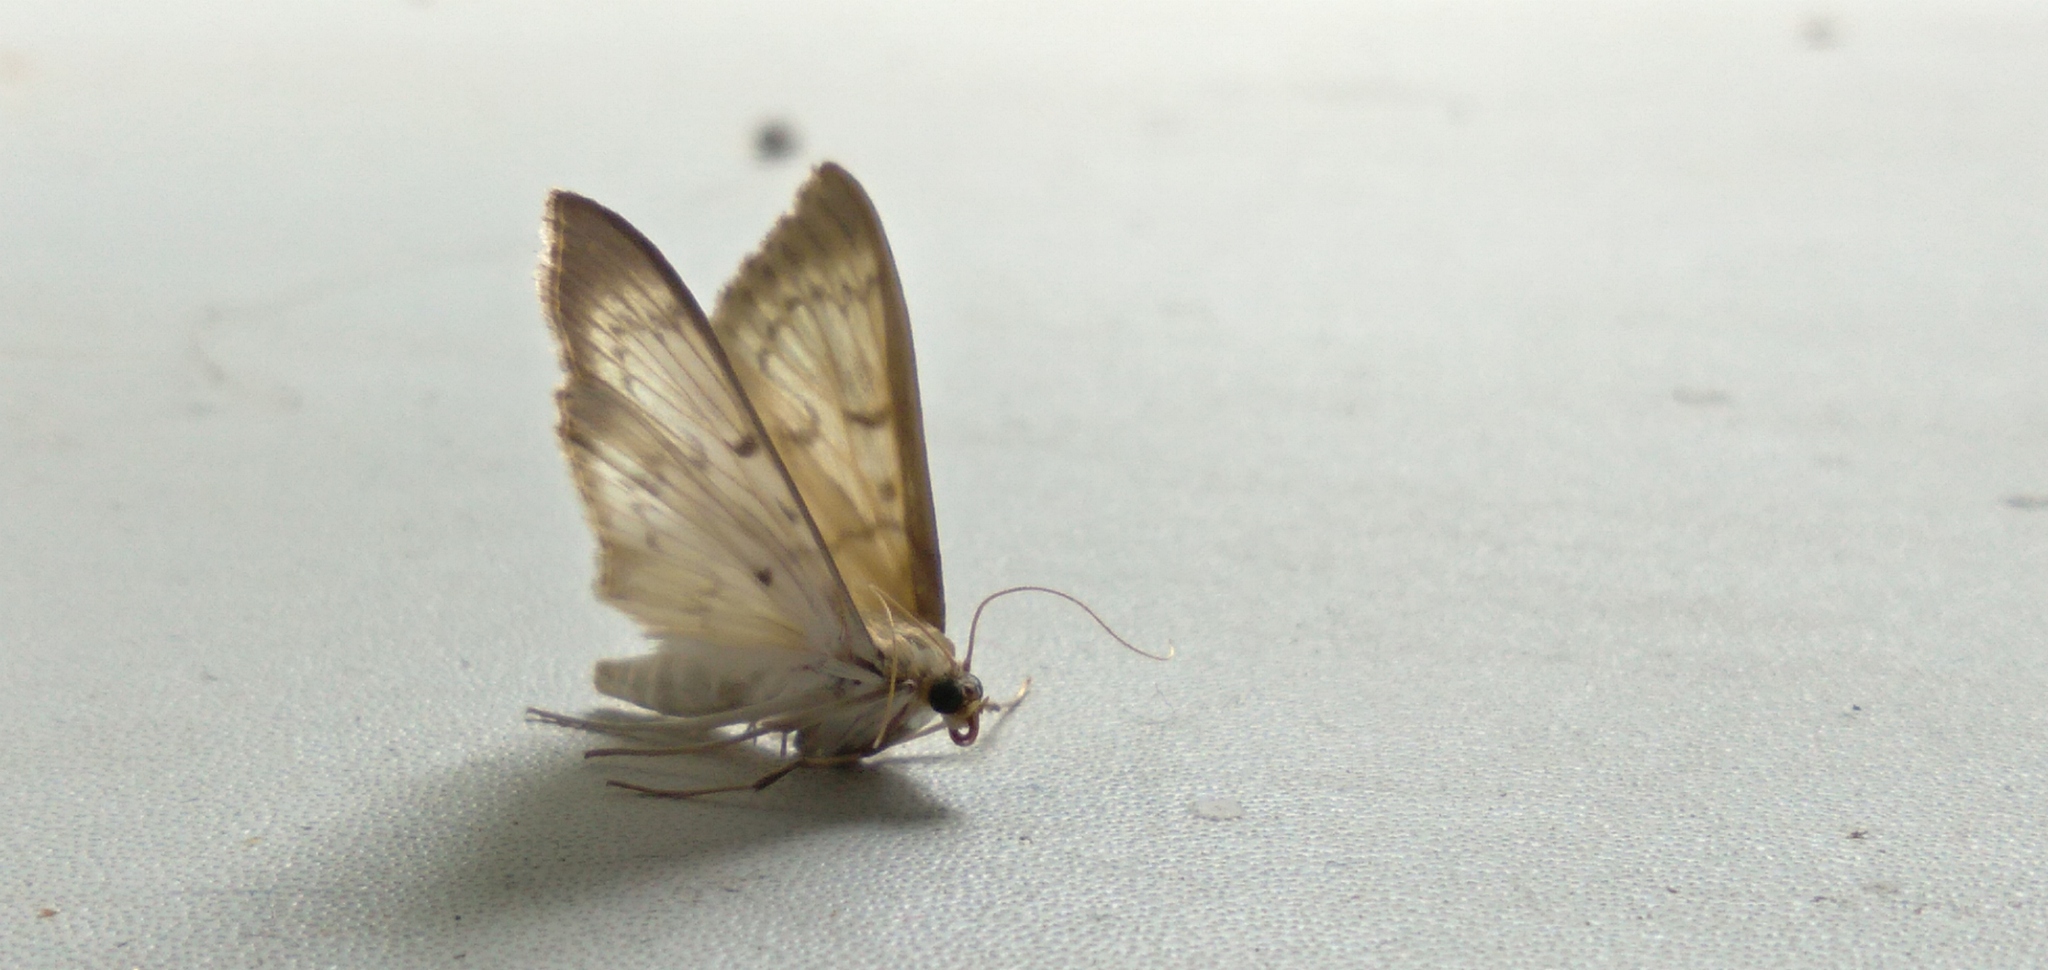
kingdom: Animalia
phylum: Arthropoda
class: Insecta
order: Lepidoptera
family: Crambidae
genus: Patania
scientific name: Patania ruralis
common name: Mother of pearl
